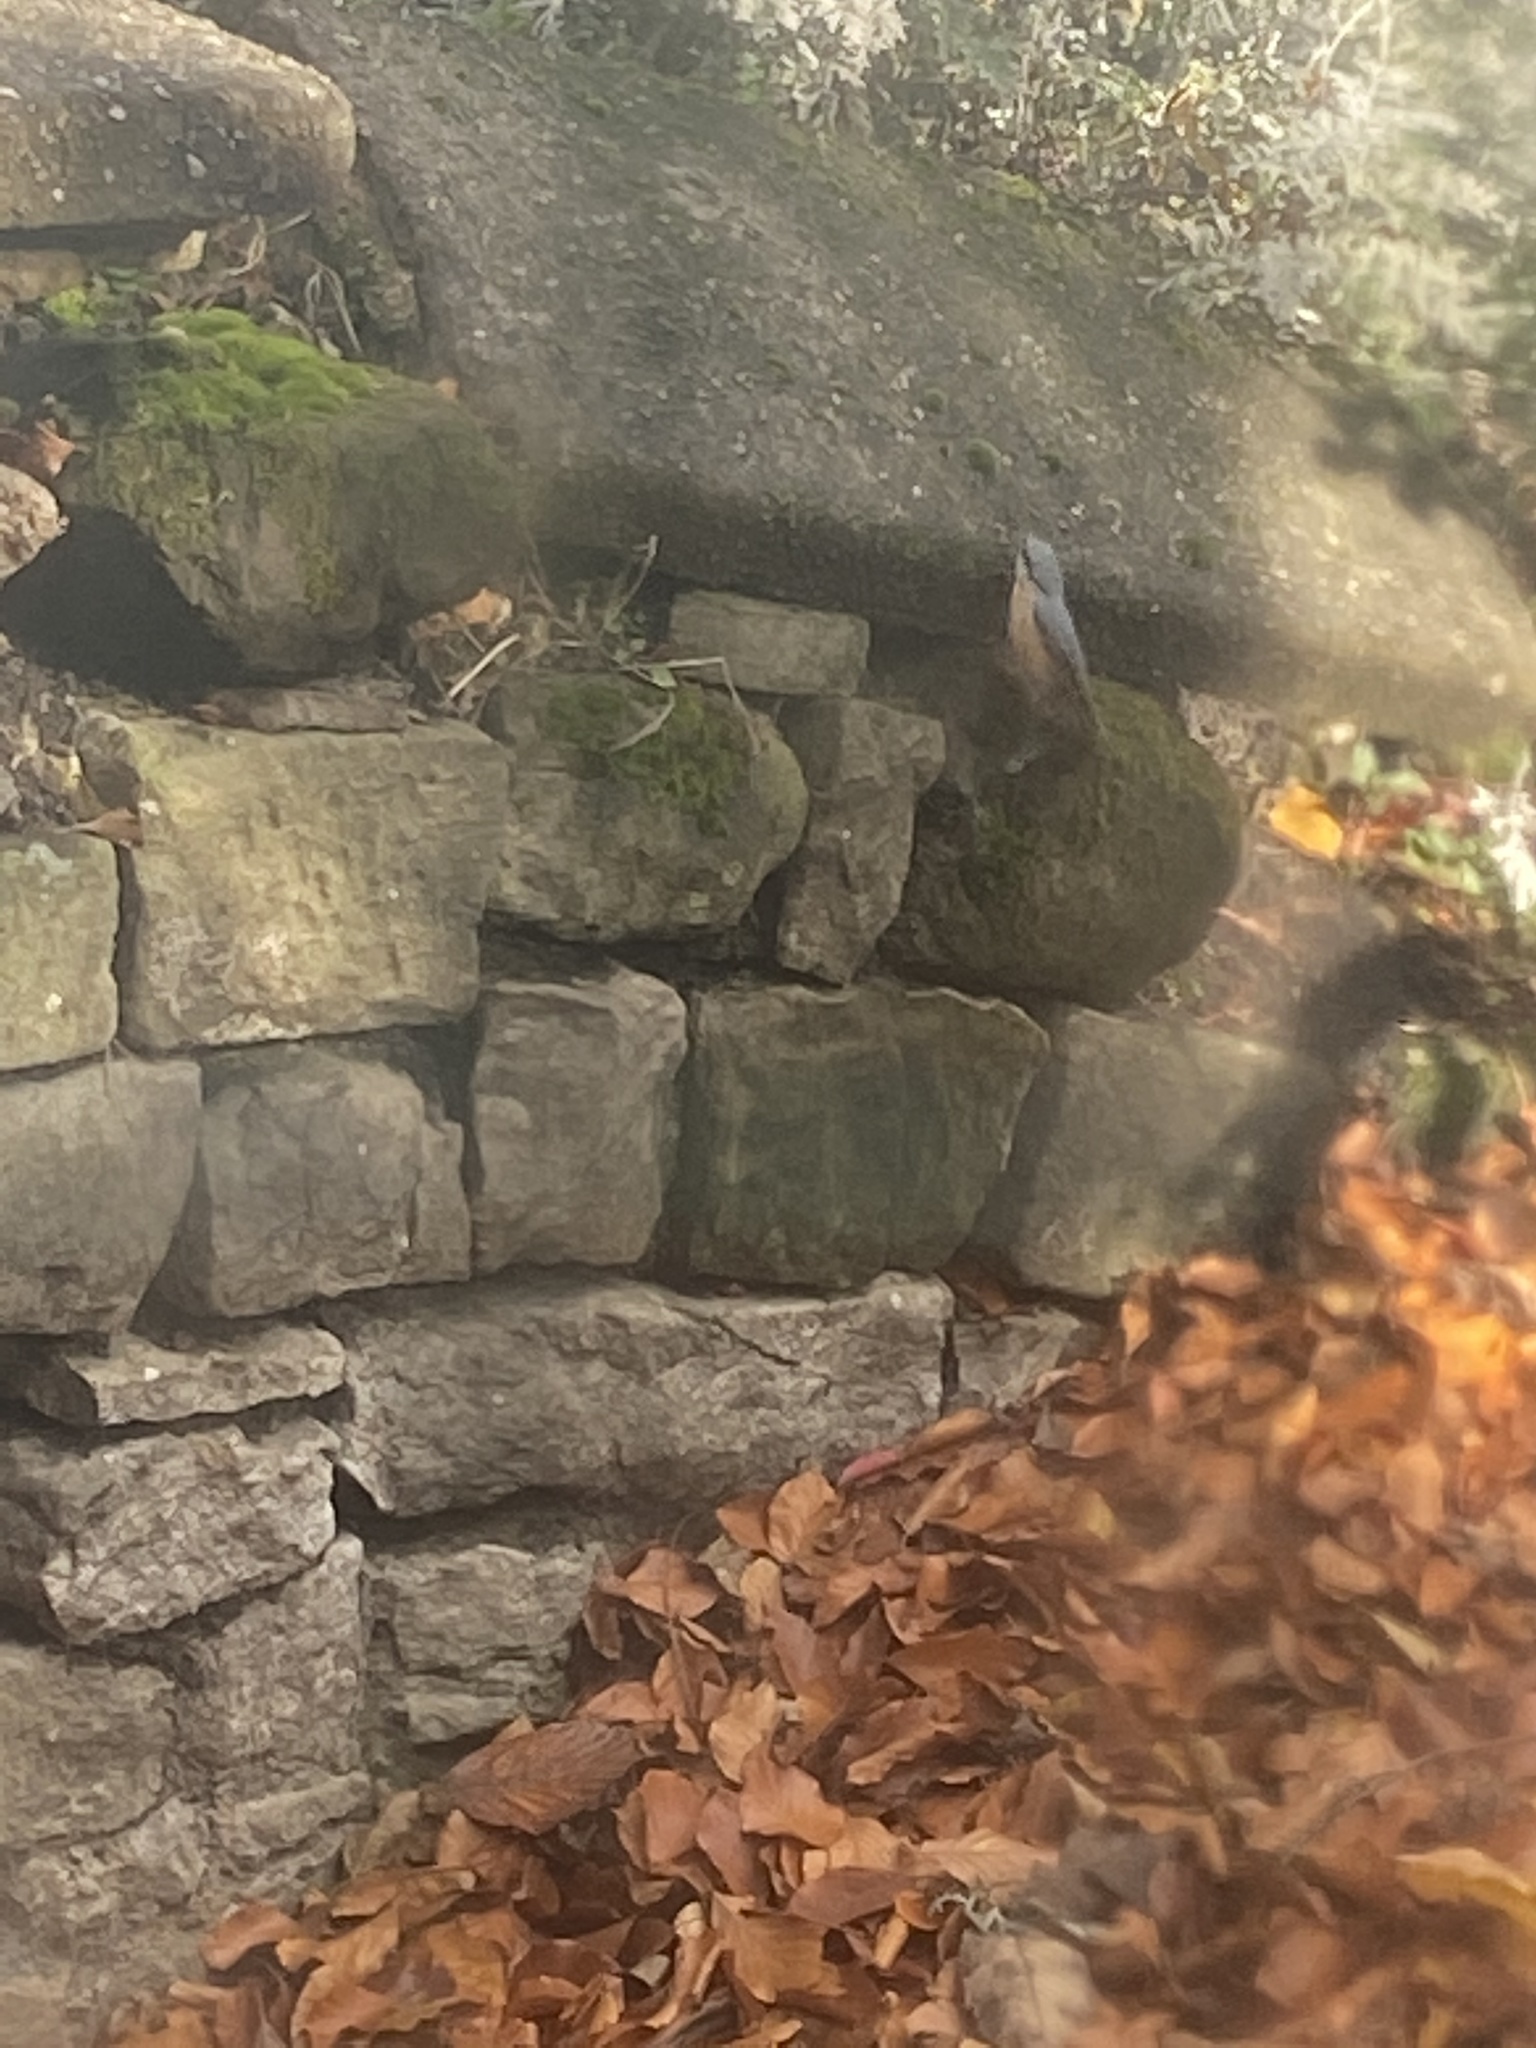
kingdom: Animalia
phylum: Chordata
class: Aves
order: Passeriformes
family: Sittidae
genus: Sitta
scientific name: Sitta europaea
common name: Eurasian nuthatch
